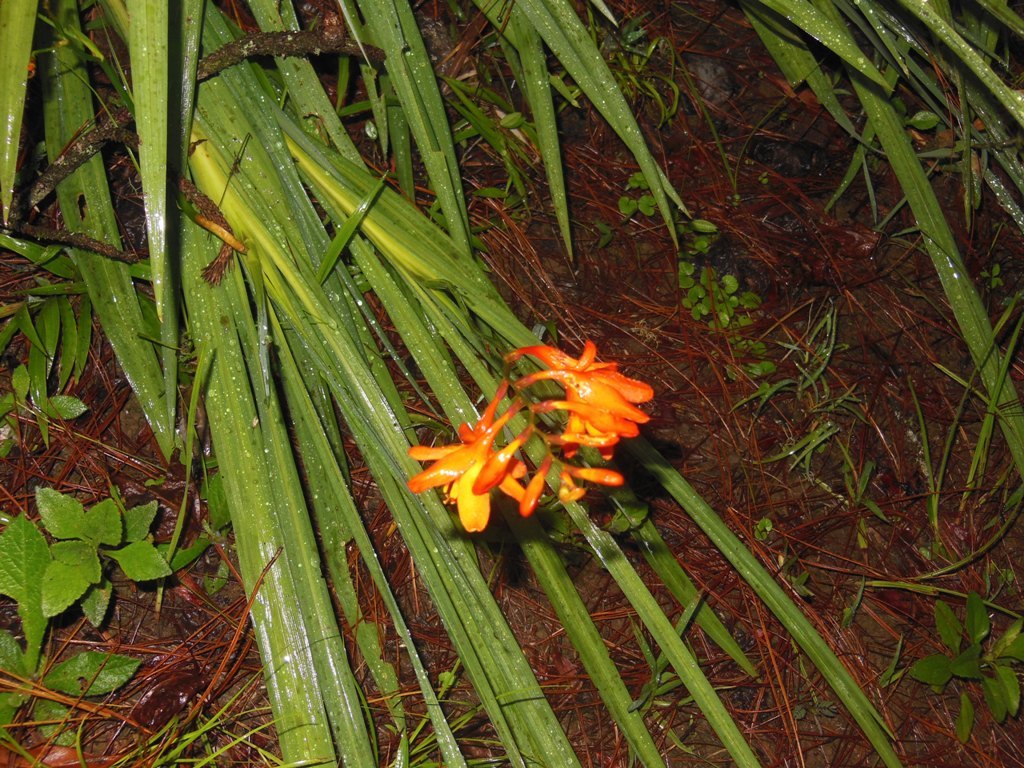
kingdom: Plantae
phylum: Tracheophyta
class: Liliopsida
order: Asparagales
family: Iridaceae
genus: Crocosmia
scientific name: Crocosmia aurea
